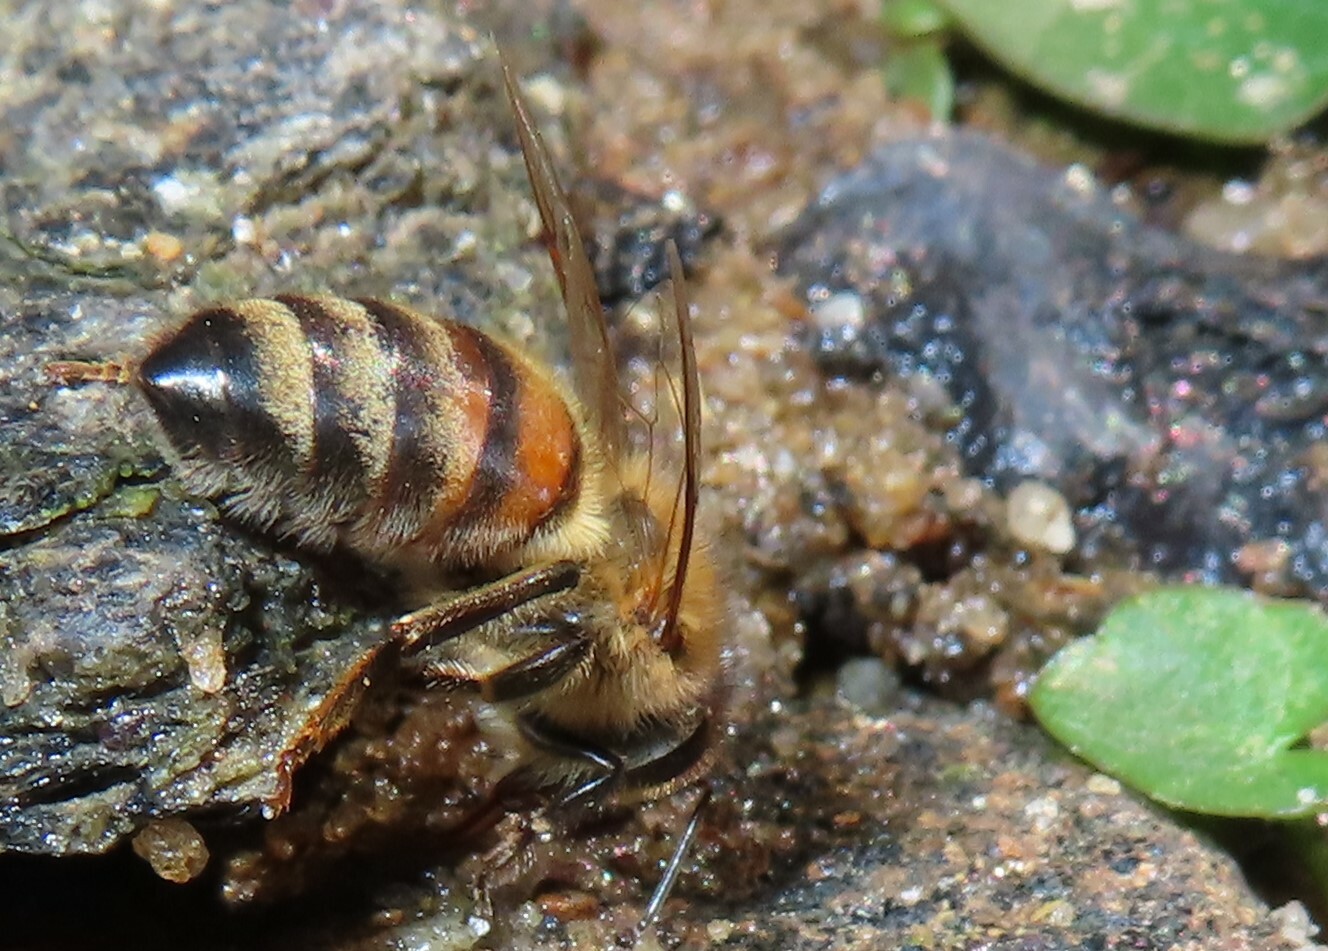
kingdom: Animalia
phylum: Arthropoda
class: Insecta
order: Hymenoptera
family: Apidae
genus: Apis
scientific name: Apis mellifera
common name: Honey bee
